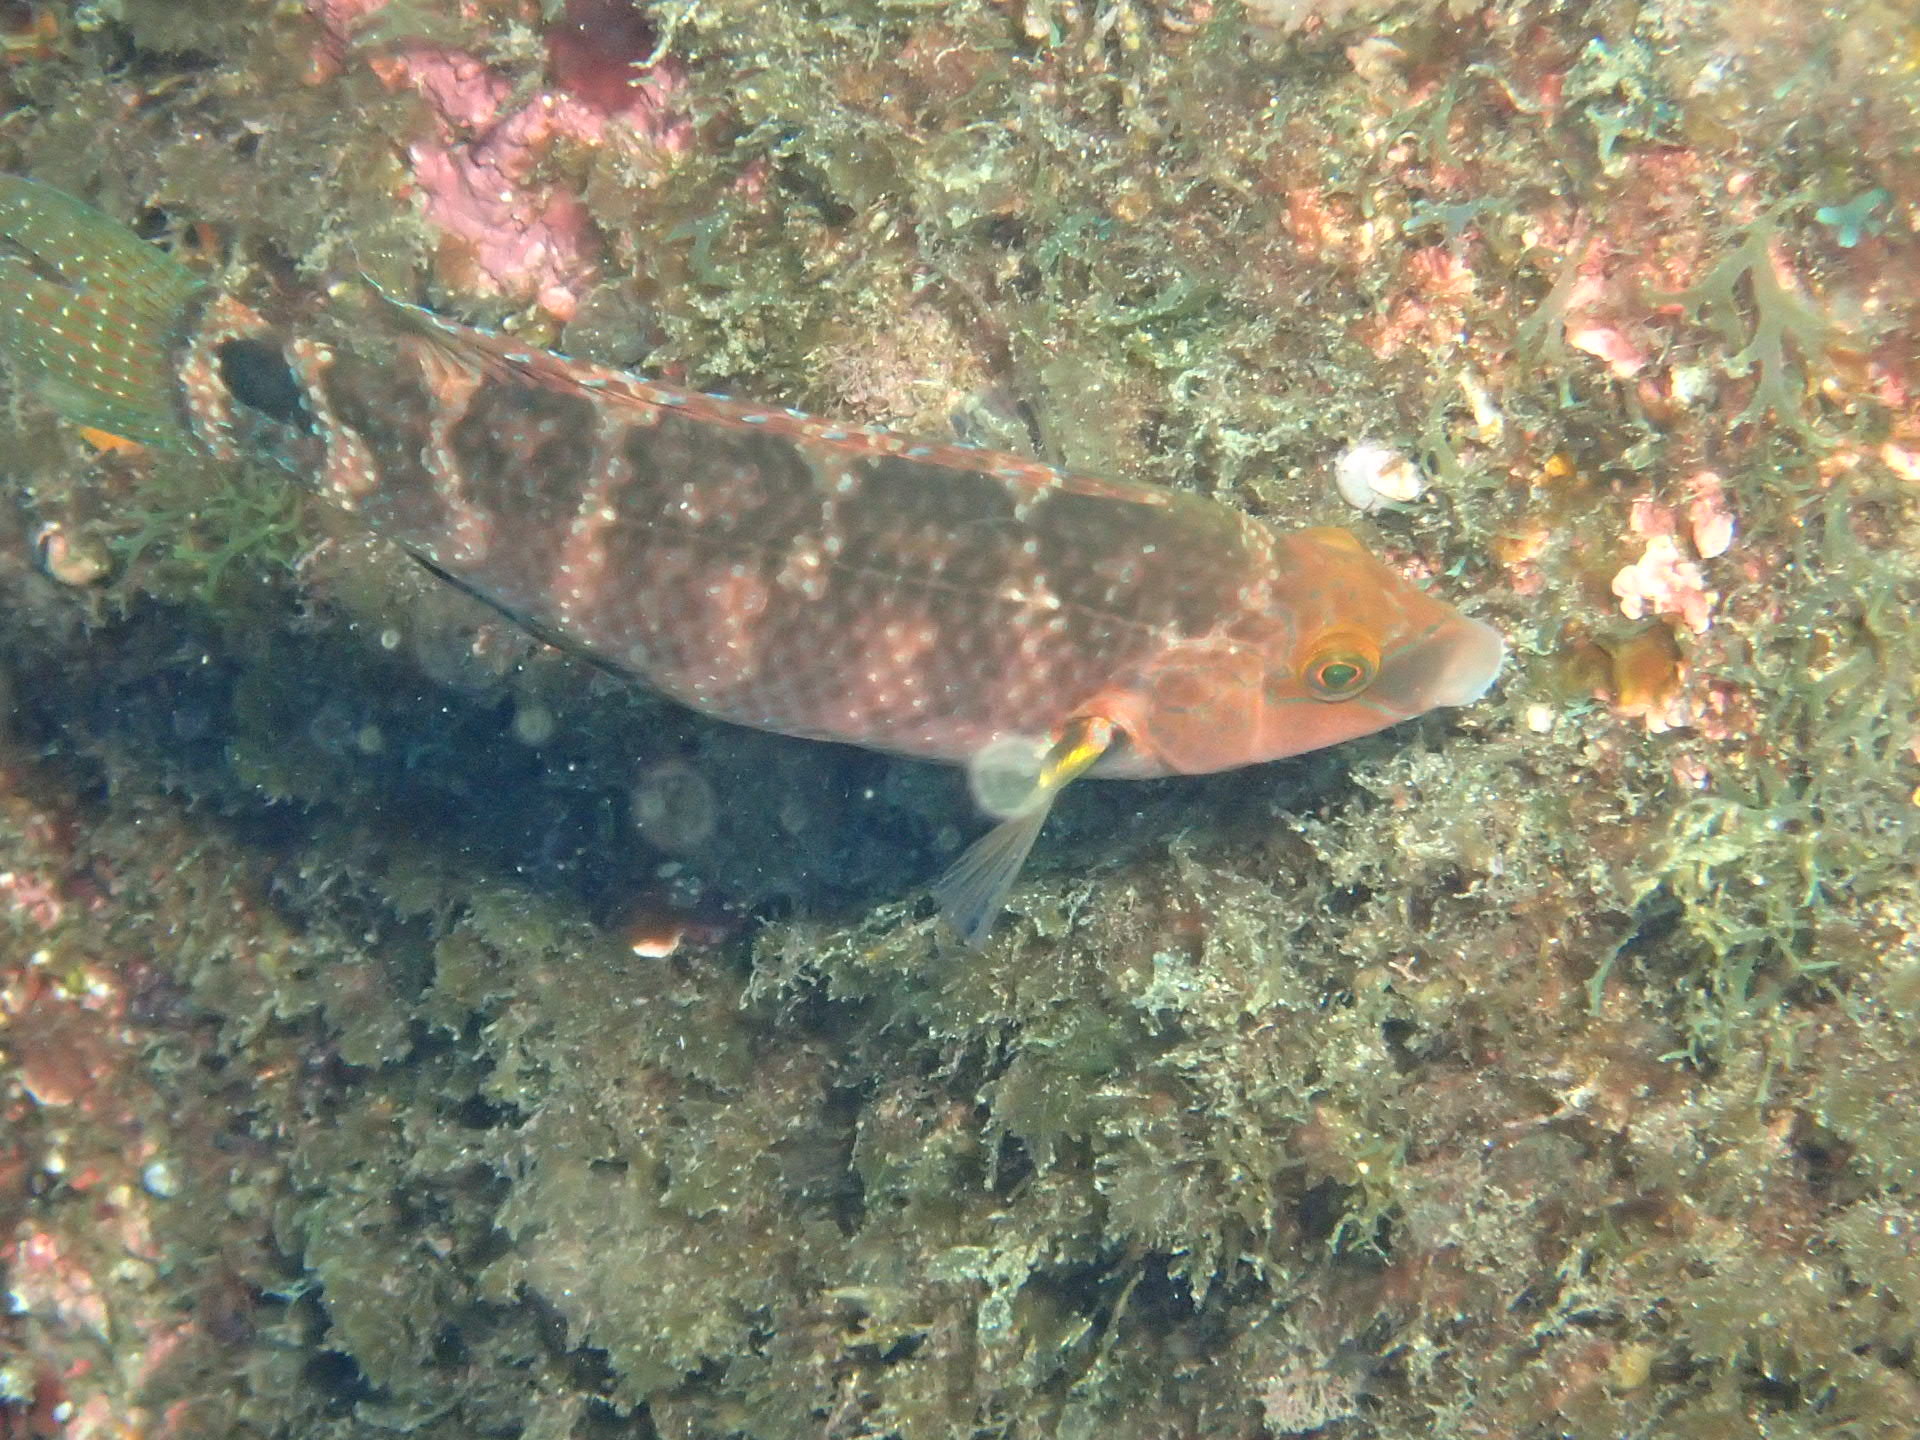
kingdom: Animalia
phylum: Chordata
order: Perciformes
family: Labridae
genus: Symphodus
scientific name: Symphodus mediterraneus
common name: Axillary wrasse
